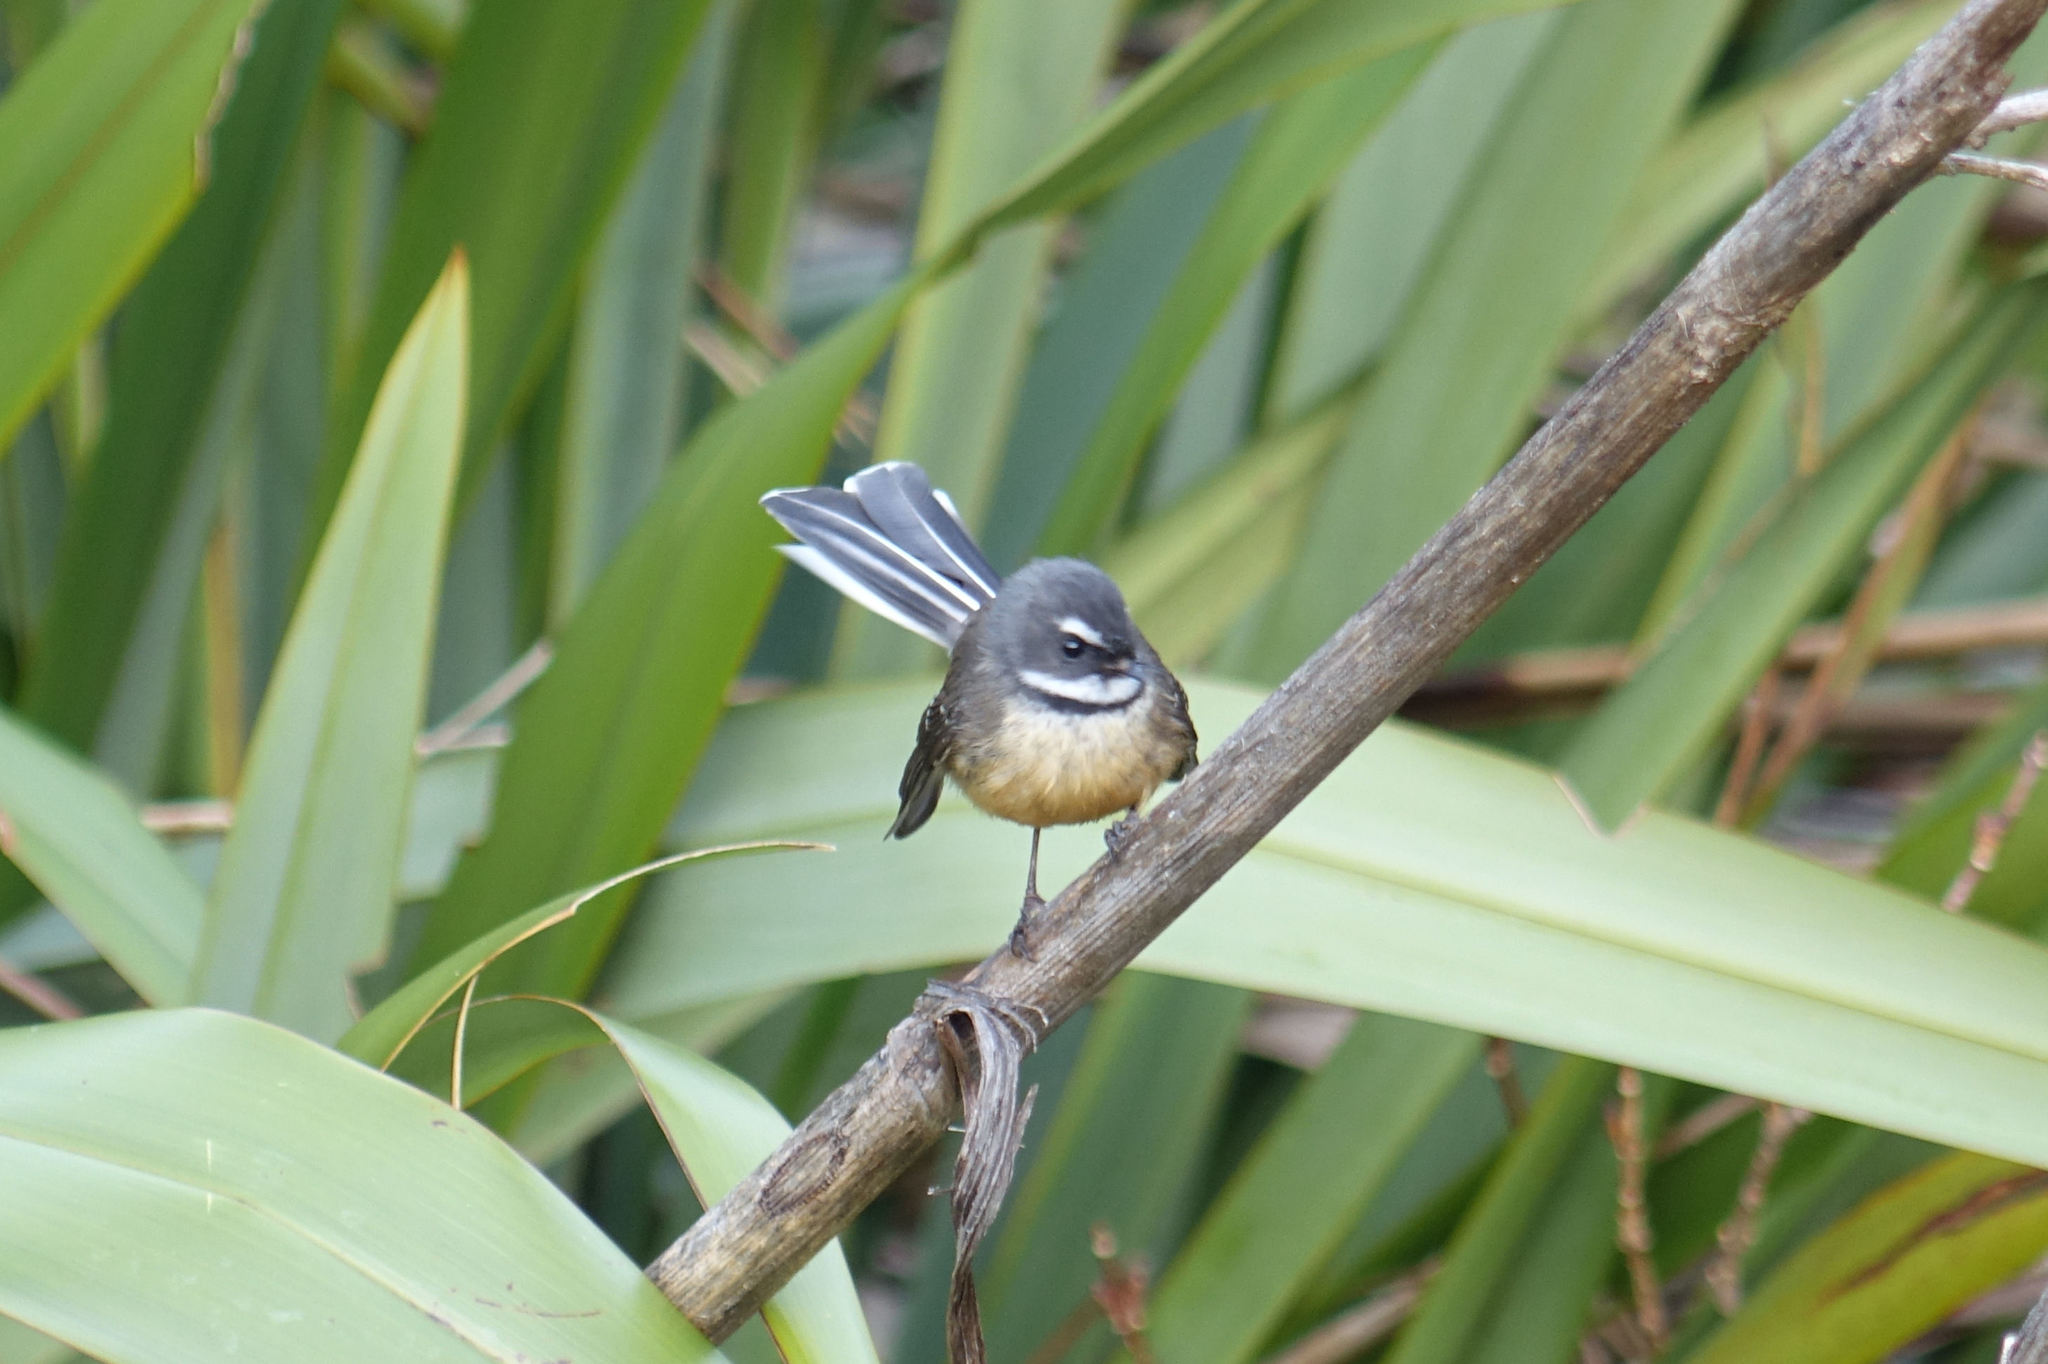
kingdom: Animalia
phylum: Chordata
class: Aves
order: Passeriformes
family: Rhipiduridae
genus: Rhipidura
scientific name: Rhipidura fuliginosa
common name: New zealand fantail
